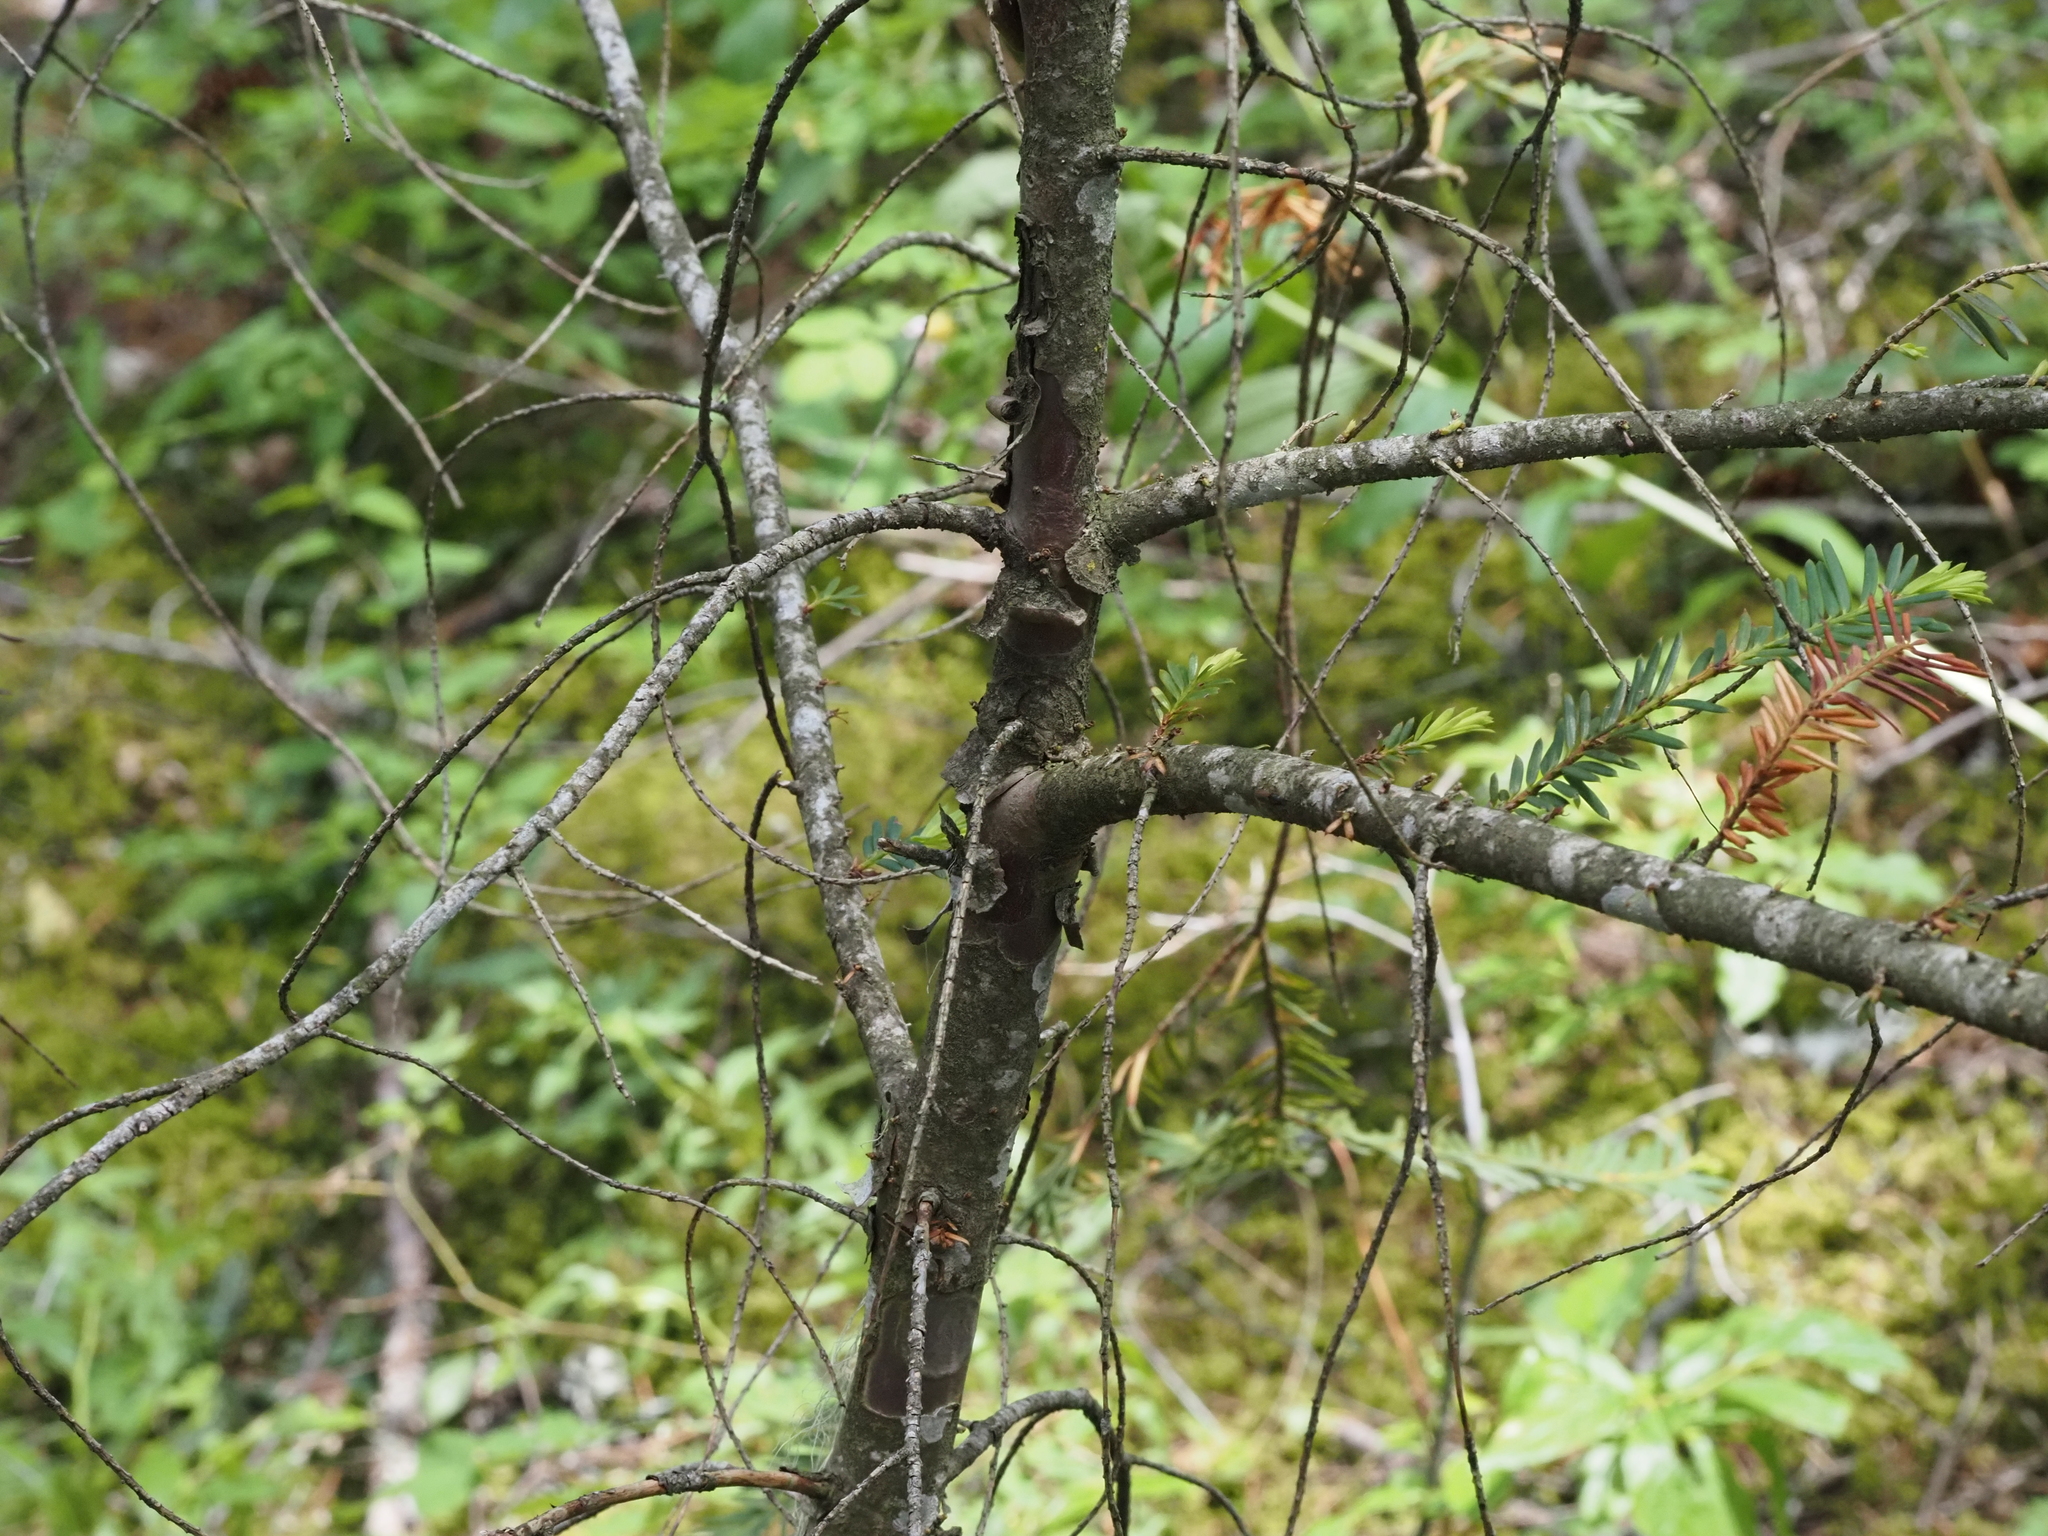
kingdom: Plantae
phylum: Tracheophyta
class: Pinopsida
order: Pinales
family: Taxaceae
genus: Taxus
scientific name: Taxus brevifolia
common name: Pacific yew
